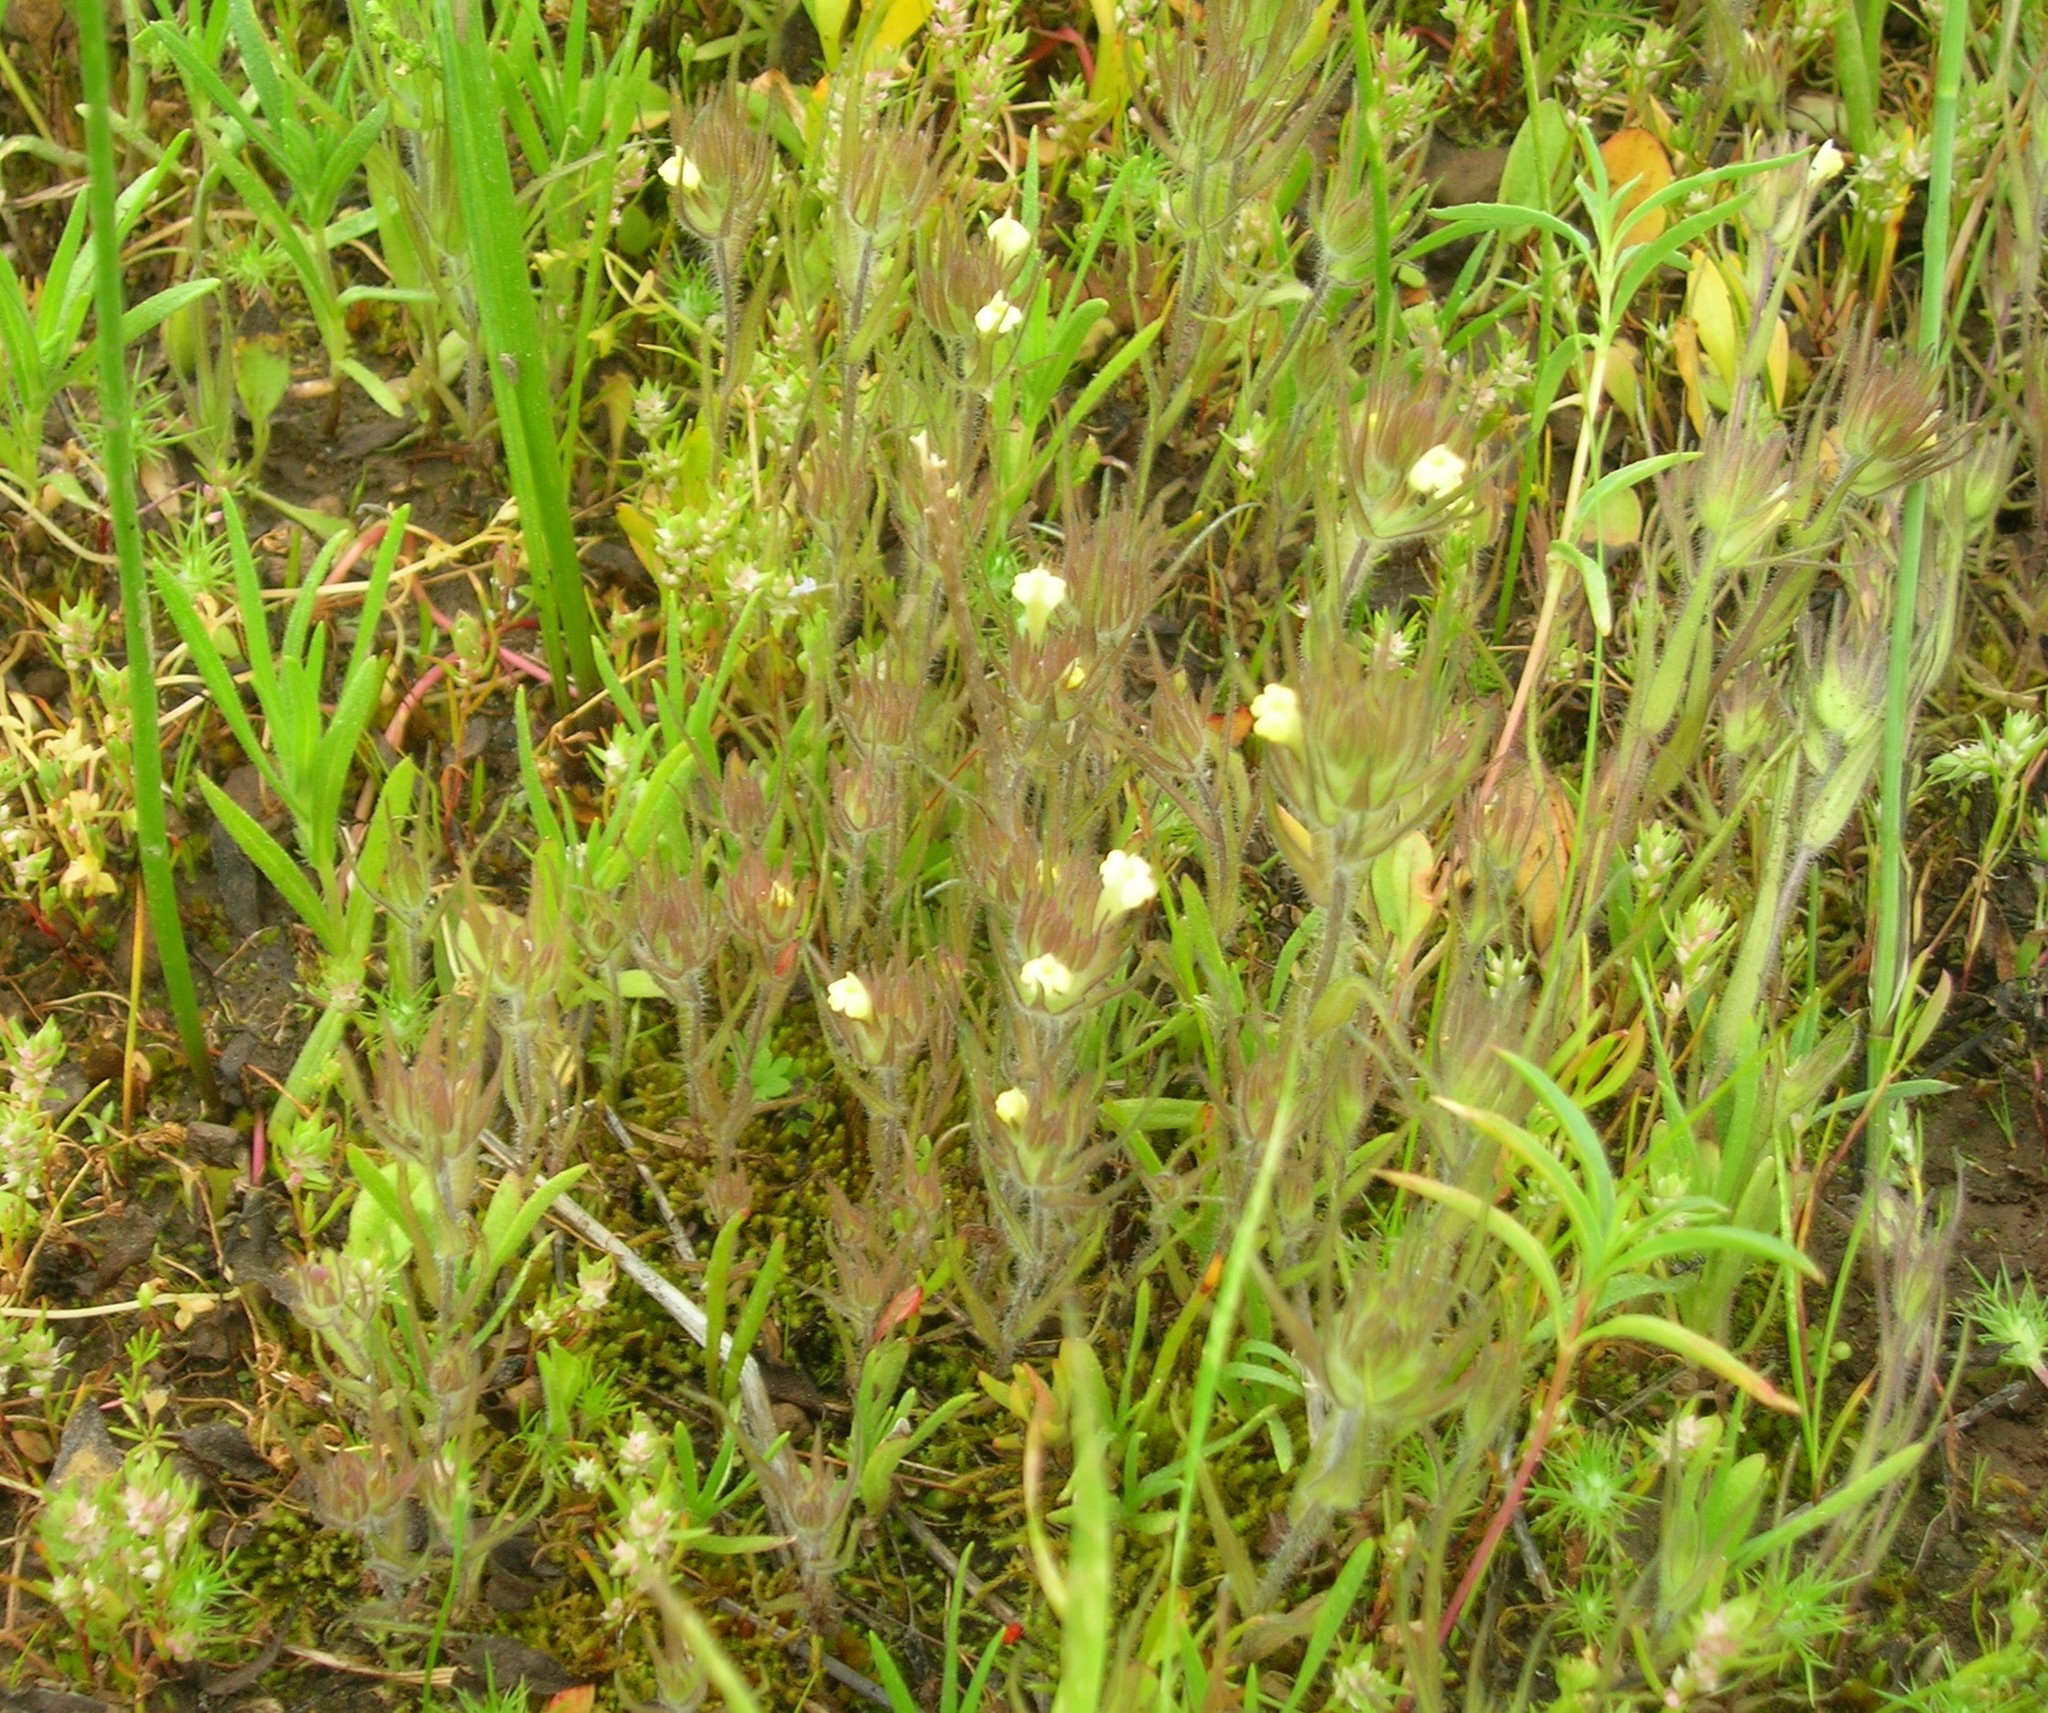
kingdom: Plantae
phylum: Tracheophyta
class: Magnoliopsida
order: Lamiales
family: Orobanchaceae
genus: Castilleja
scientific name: Castilleja tenuis
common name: Hairy indian paintbrush
